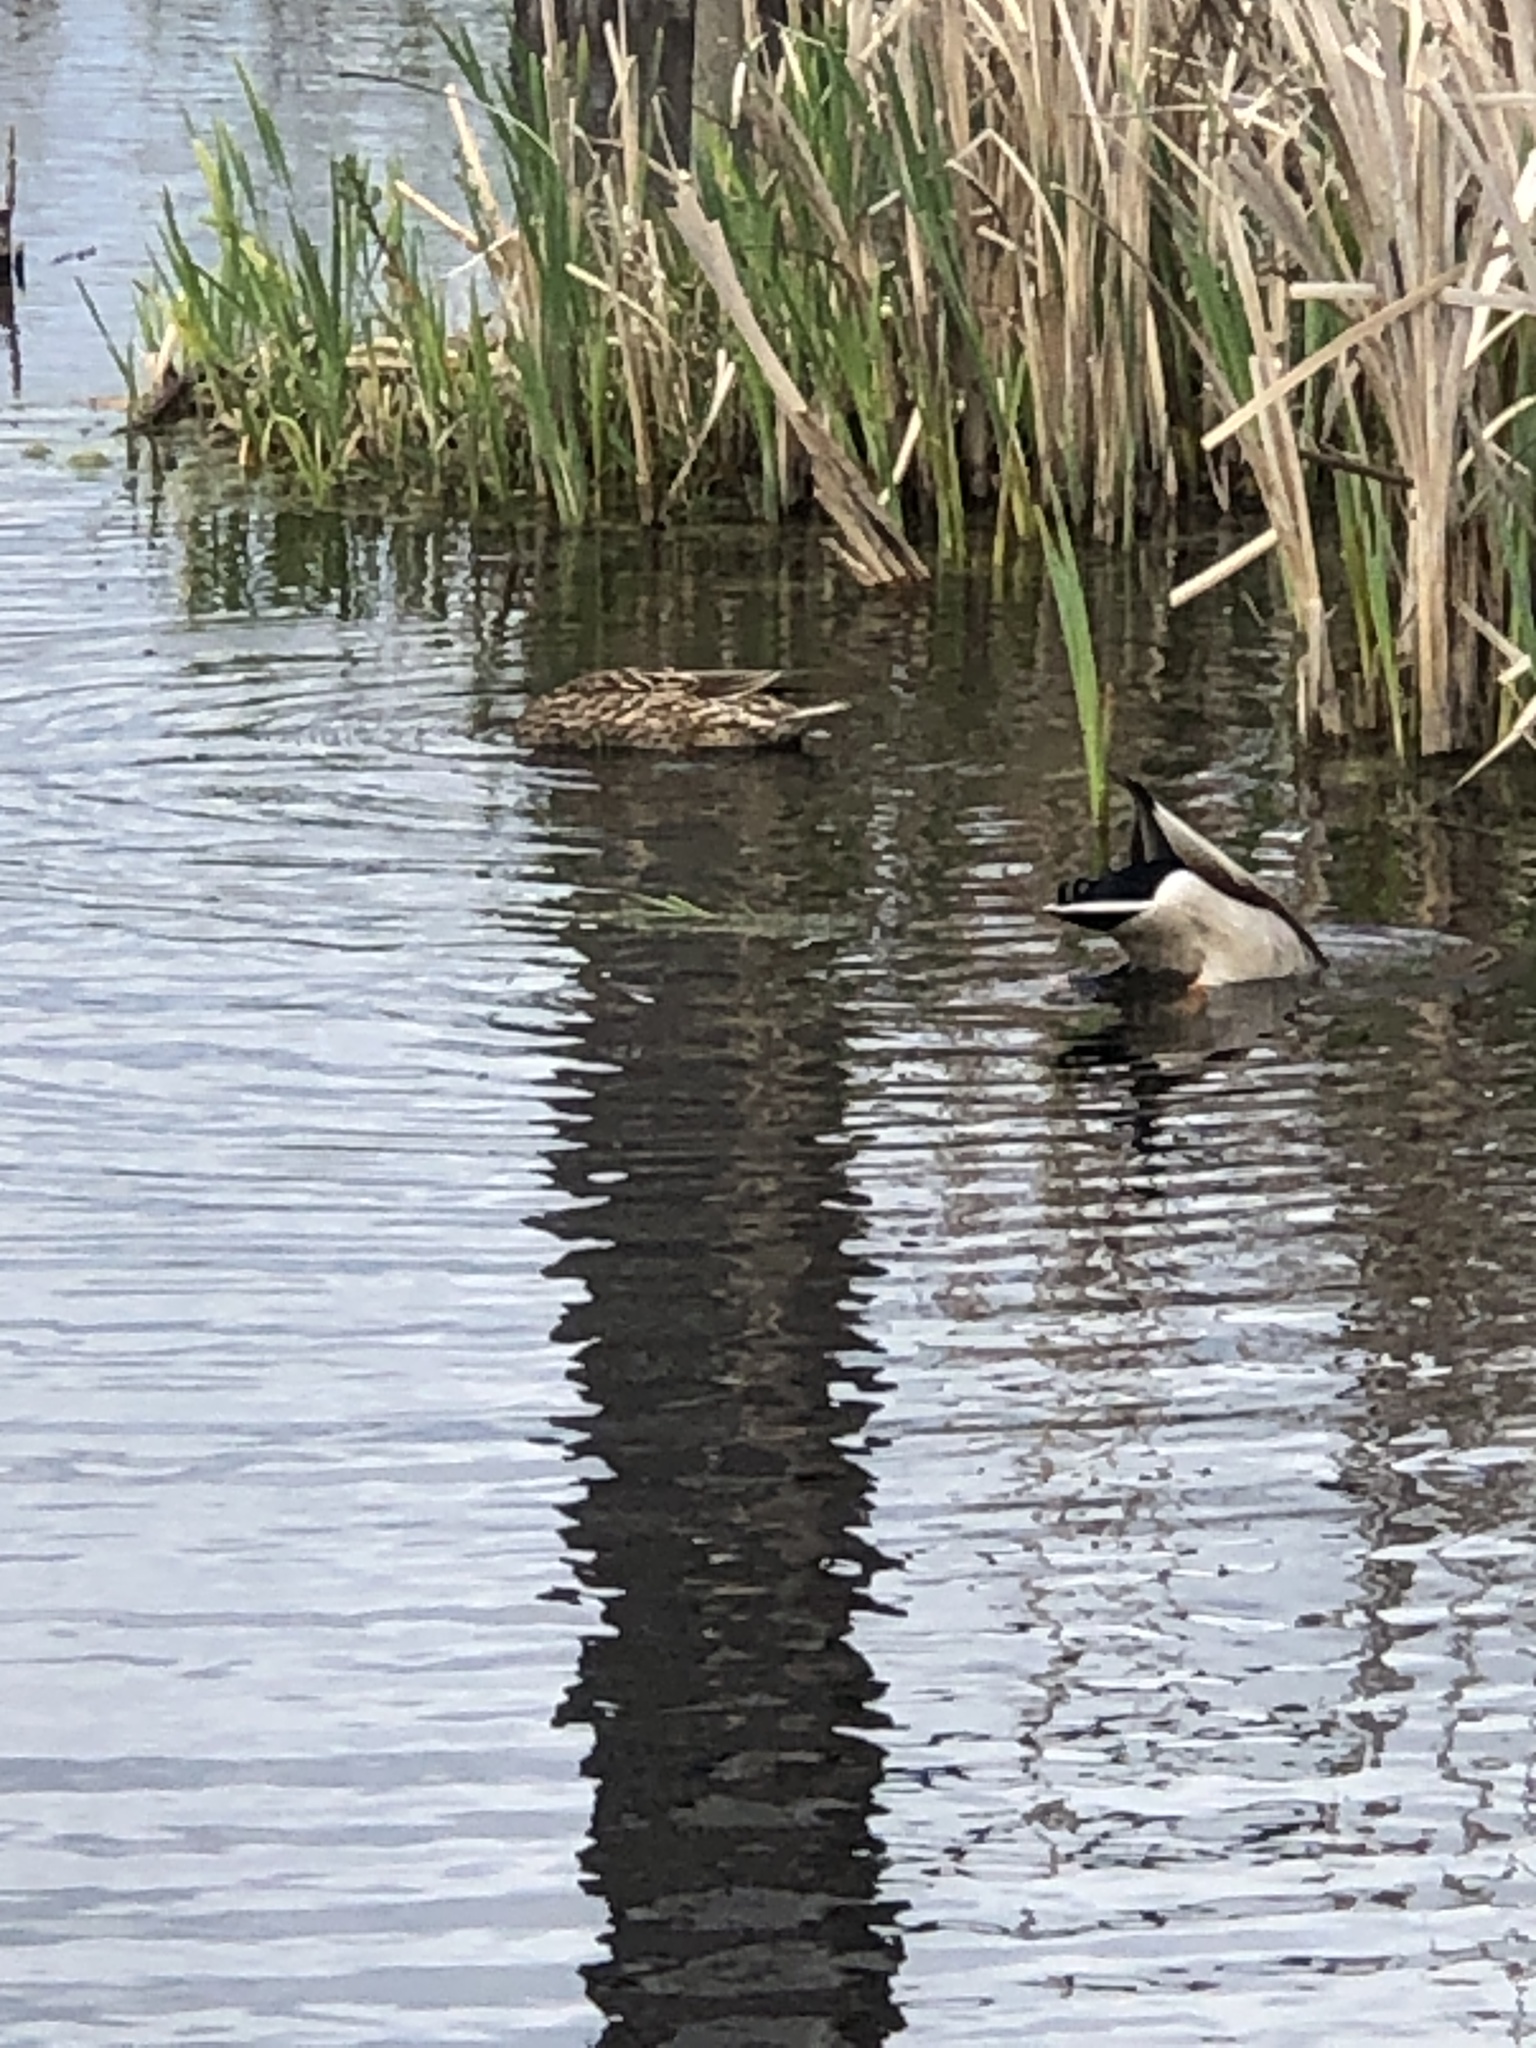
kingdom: Animalia
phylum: Chordata
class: Aves
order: Anseriformes
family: Anatidae
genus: Anas
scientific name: Anas platyrhynchos
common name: Mallard
